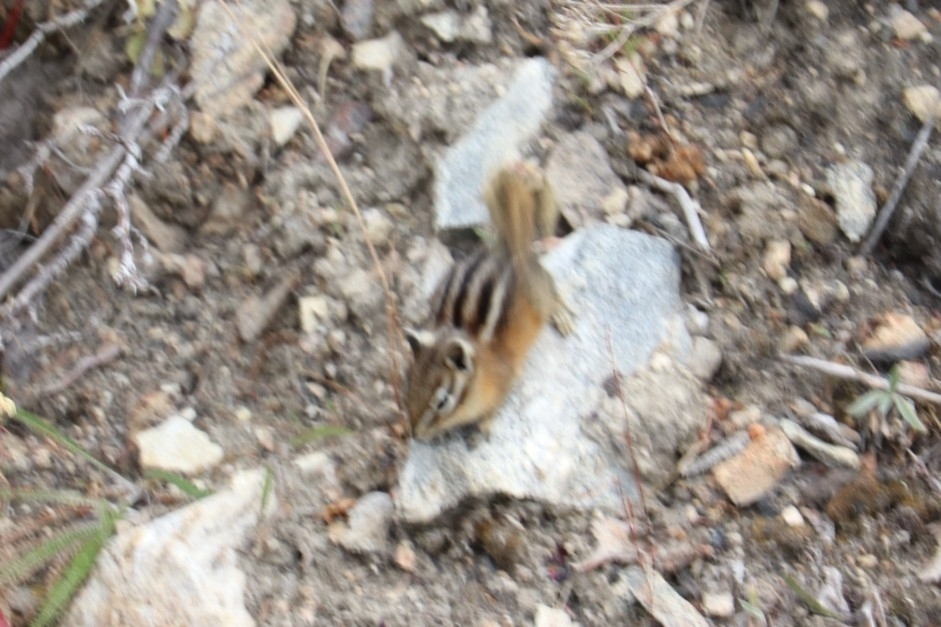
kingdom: Animalia
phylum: Chordata
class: Mammalia
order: Rodentia
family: Sciuridae
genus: Tamias
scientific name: Tamias amoenus
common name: Yellow-pine chipmunk
